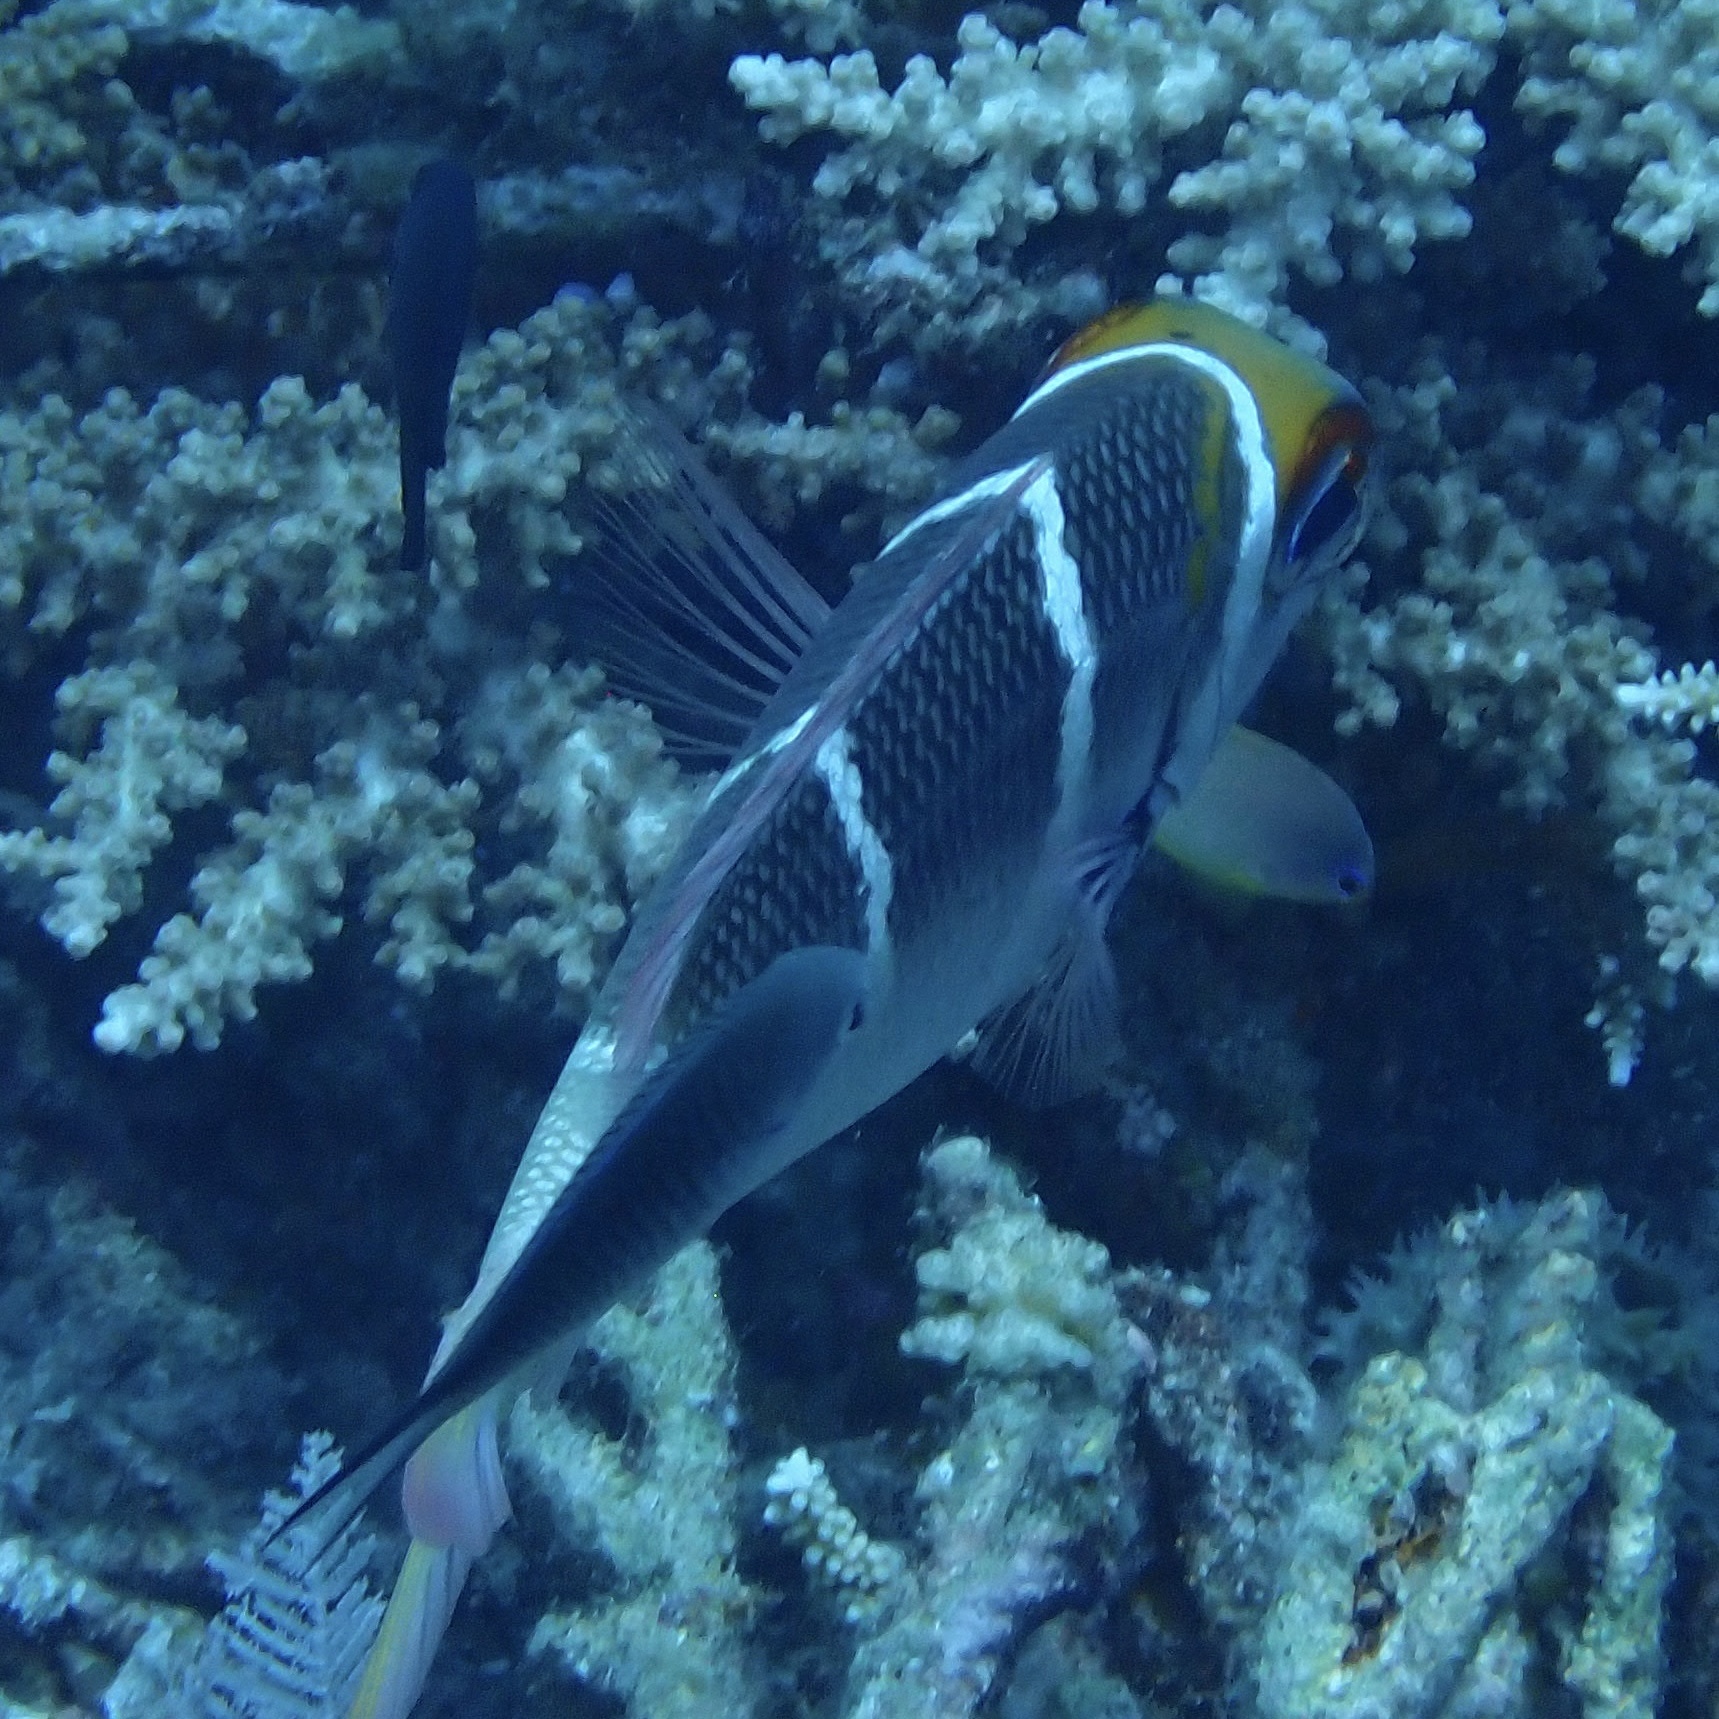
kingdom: Animalia
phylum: Chordata
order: Perciformes
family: Lethrinidae
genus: Monotaxis
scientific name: Monotaxis heterodon
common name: Redfin emperor
